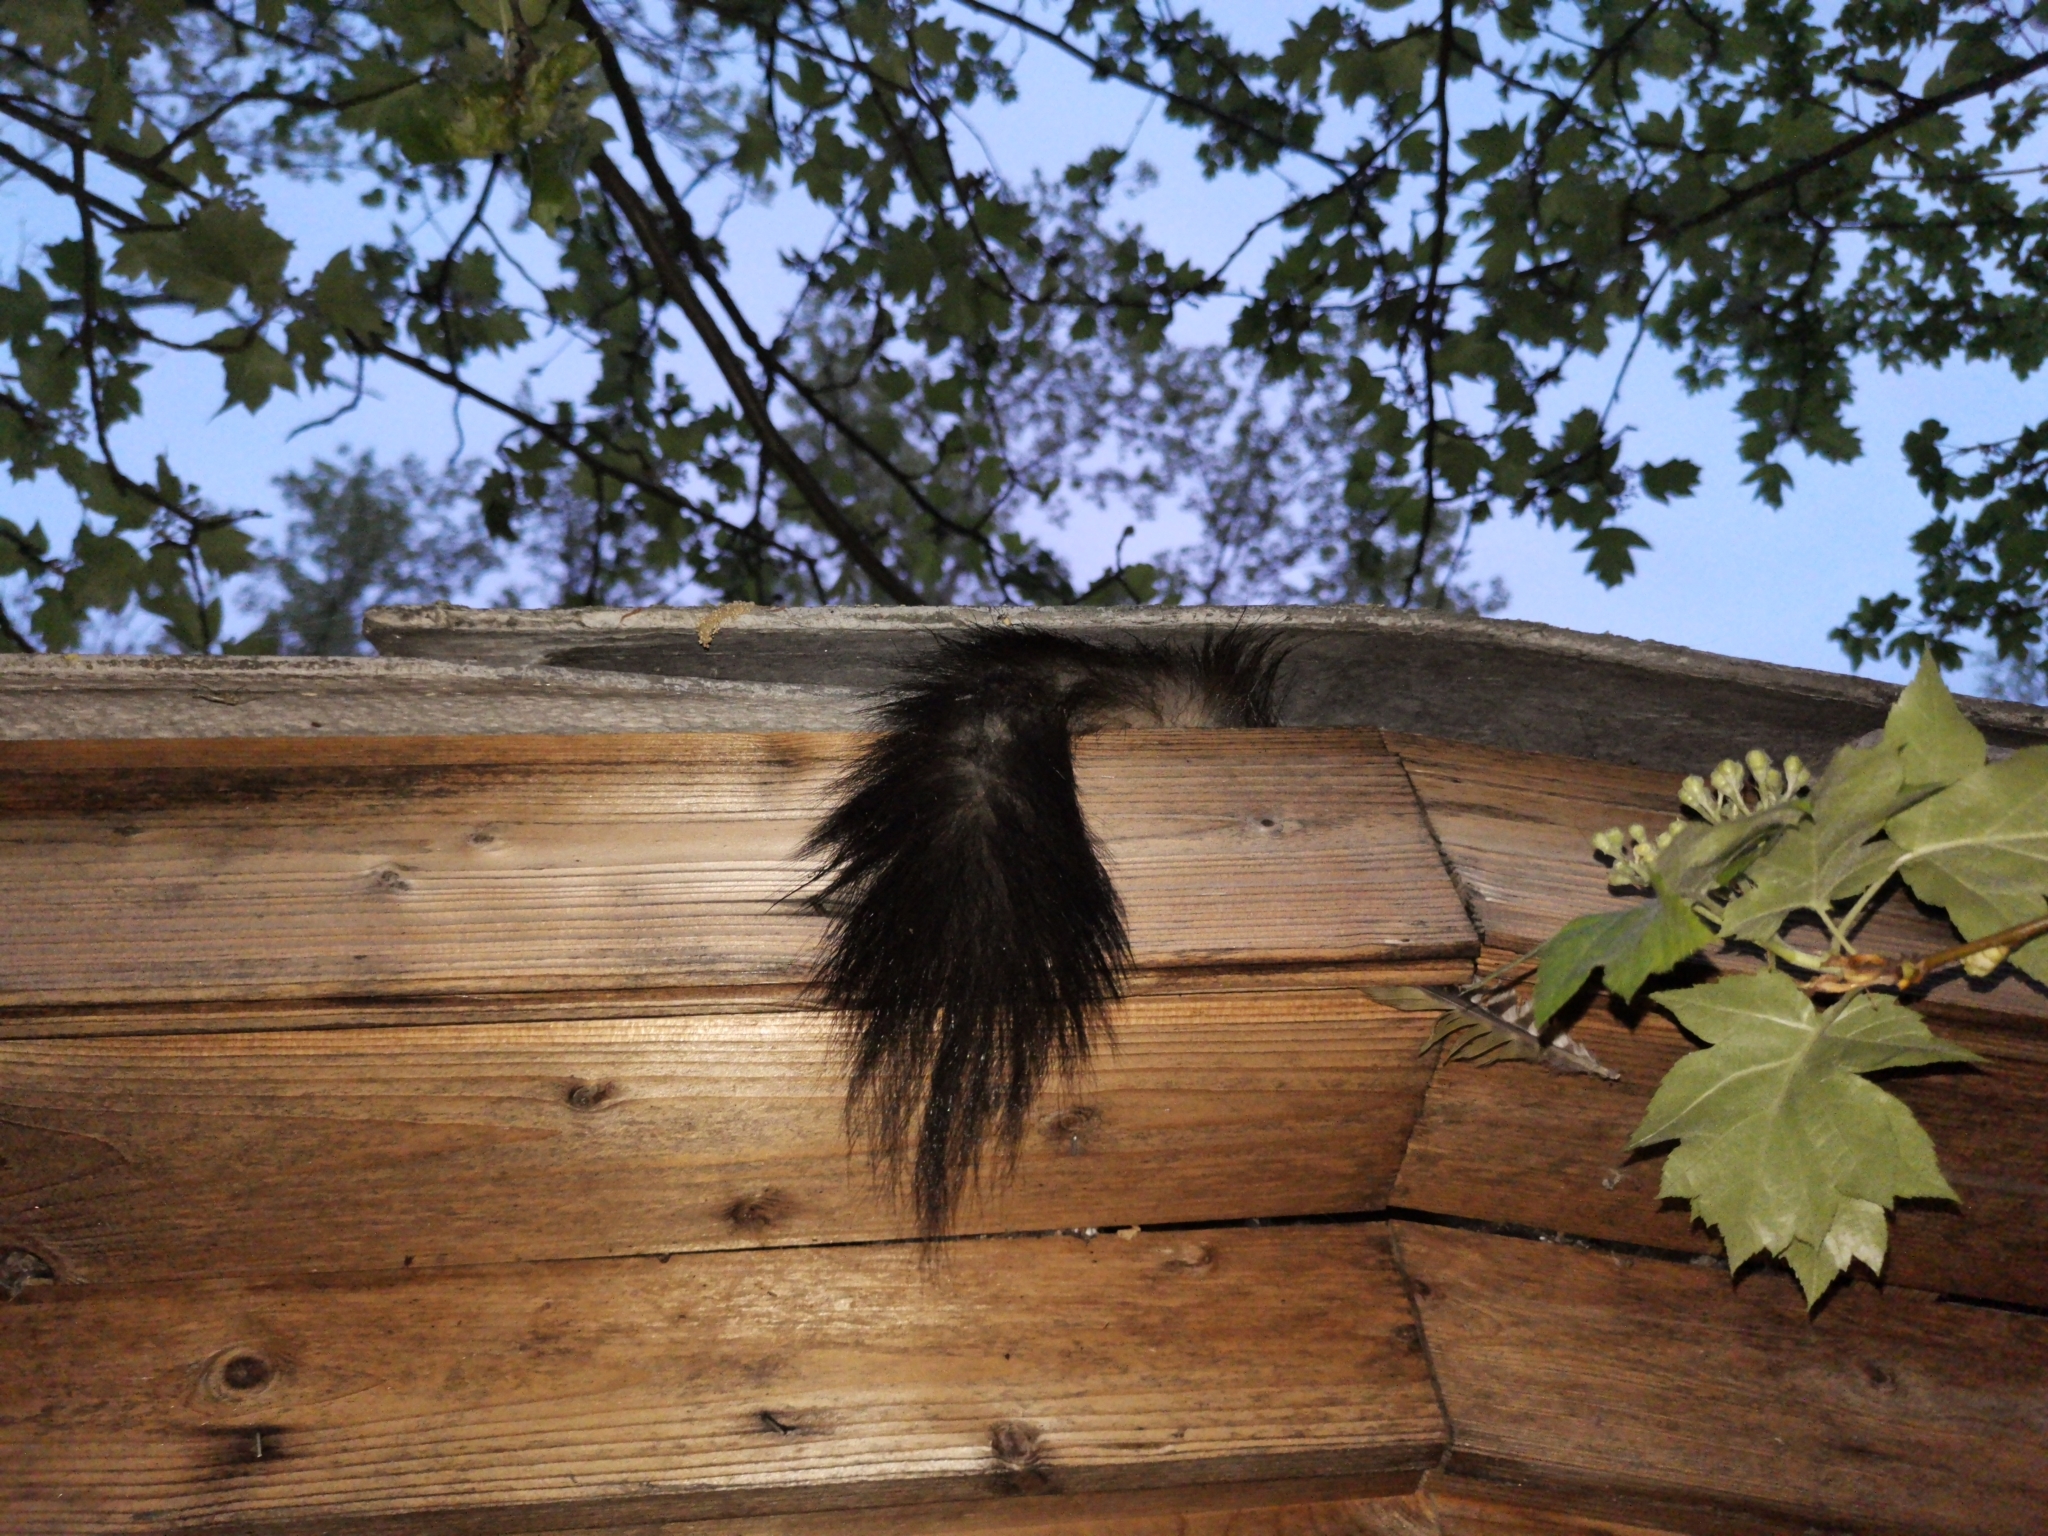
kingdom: Animalia
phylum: Chordata
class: Mammalia
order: Carnivora
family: Mustelidae
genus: Martes
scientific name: Martes foina
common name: Beech marten
